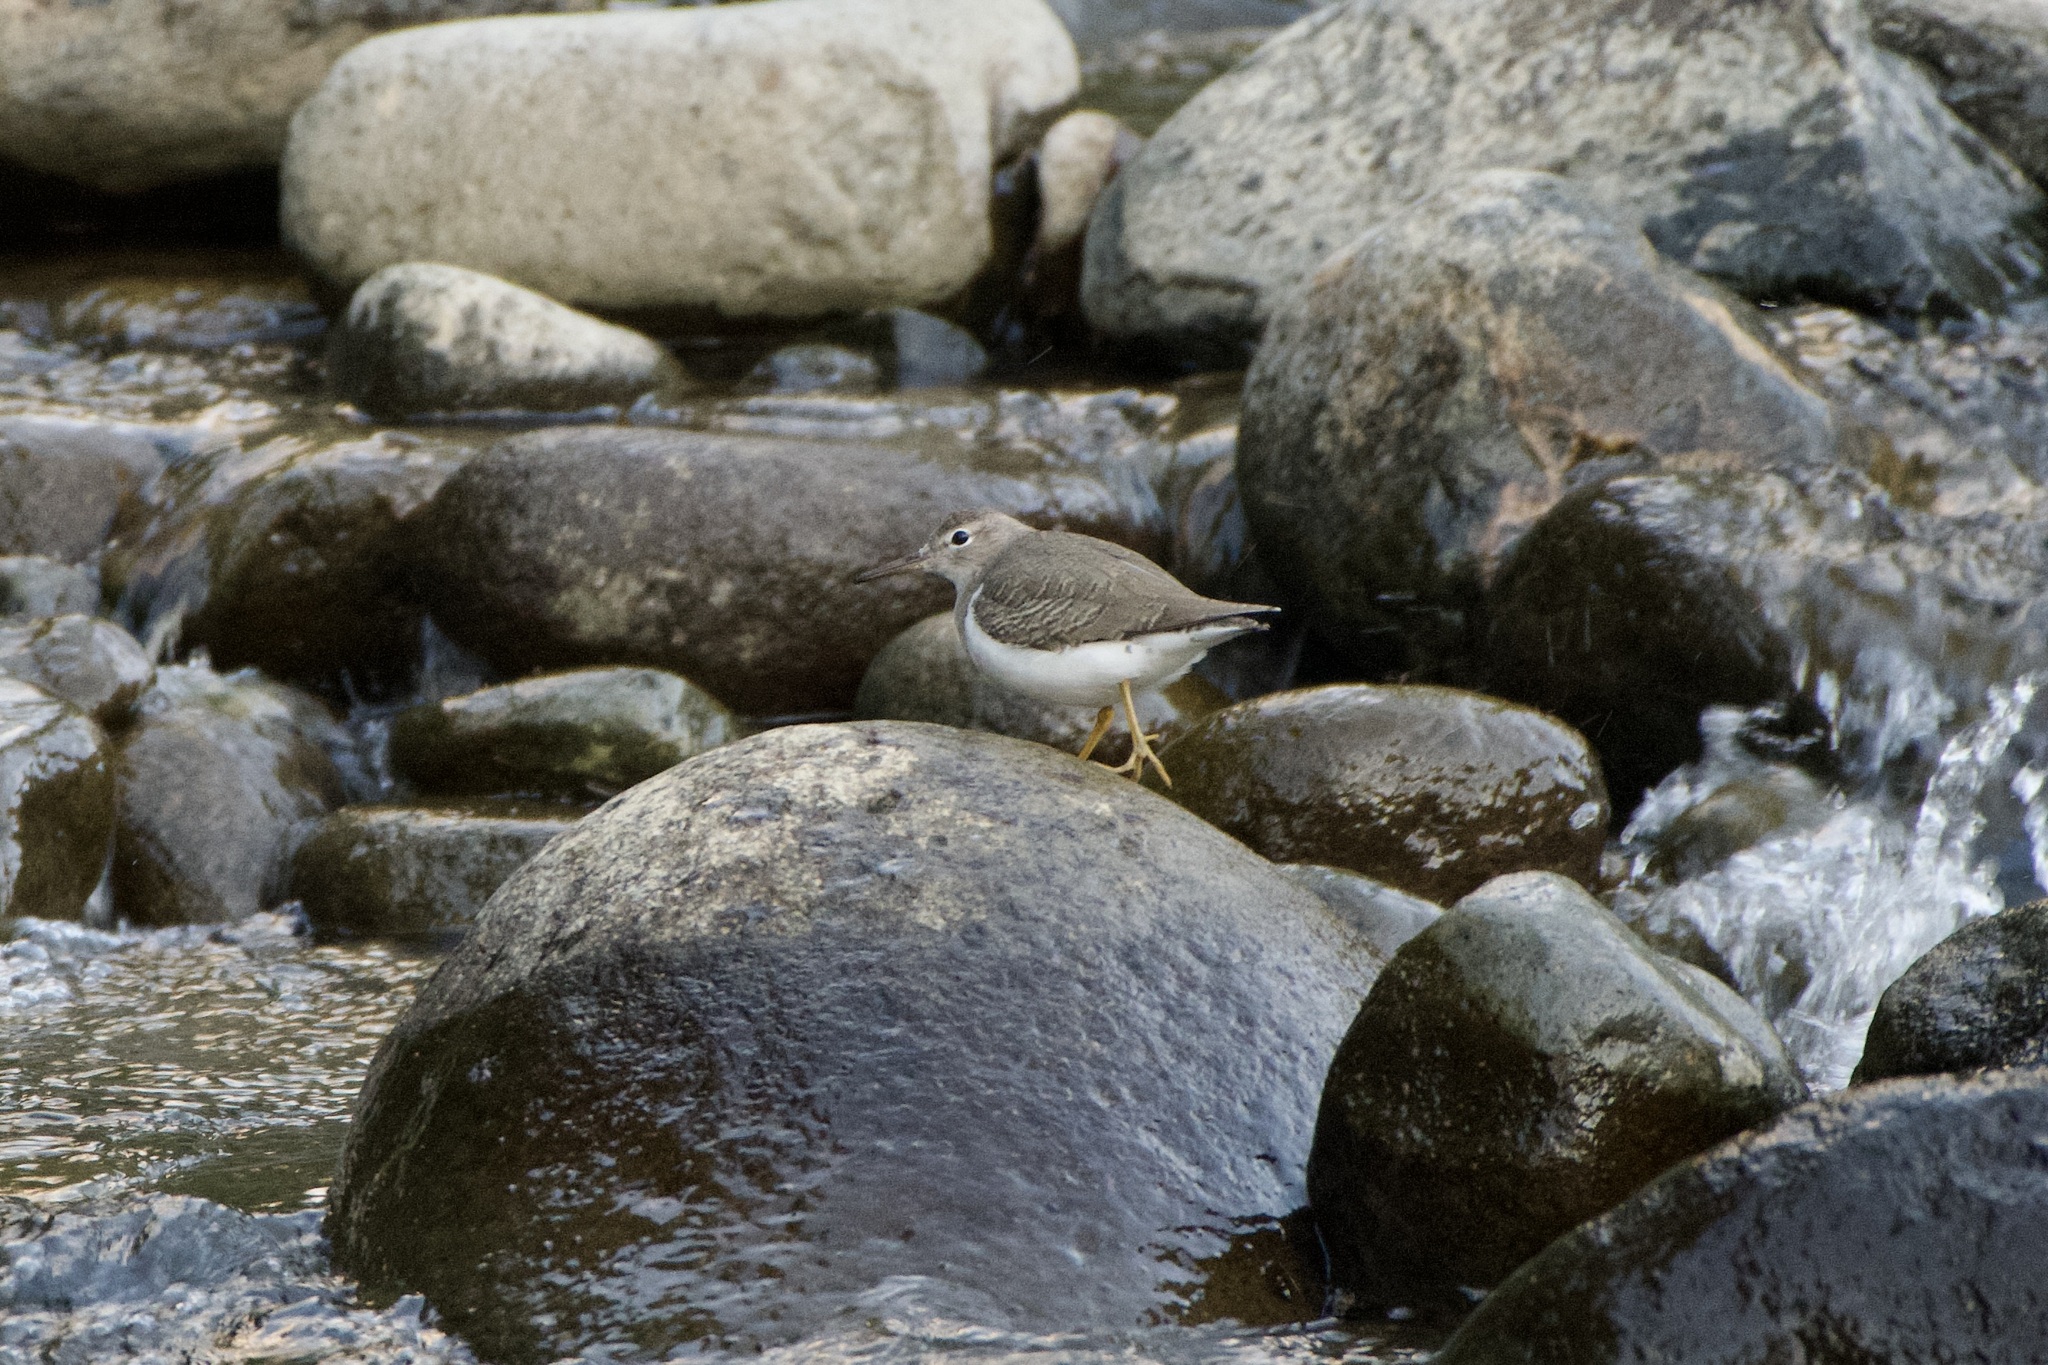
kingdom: Animalia
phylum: Chordata
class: Aves
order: Charadriiformes
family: Scolopacidae
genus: Actitis
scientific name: Actitis macularius
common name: Spotted sandpiper
